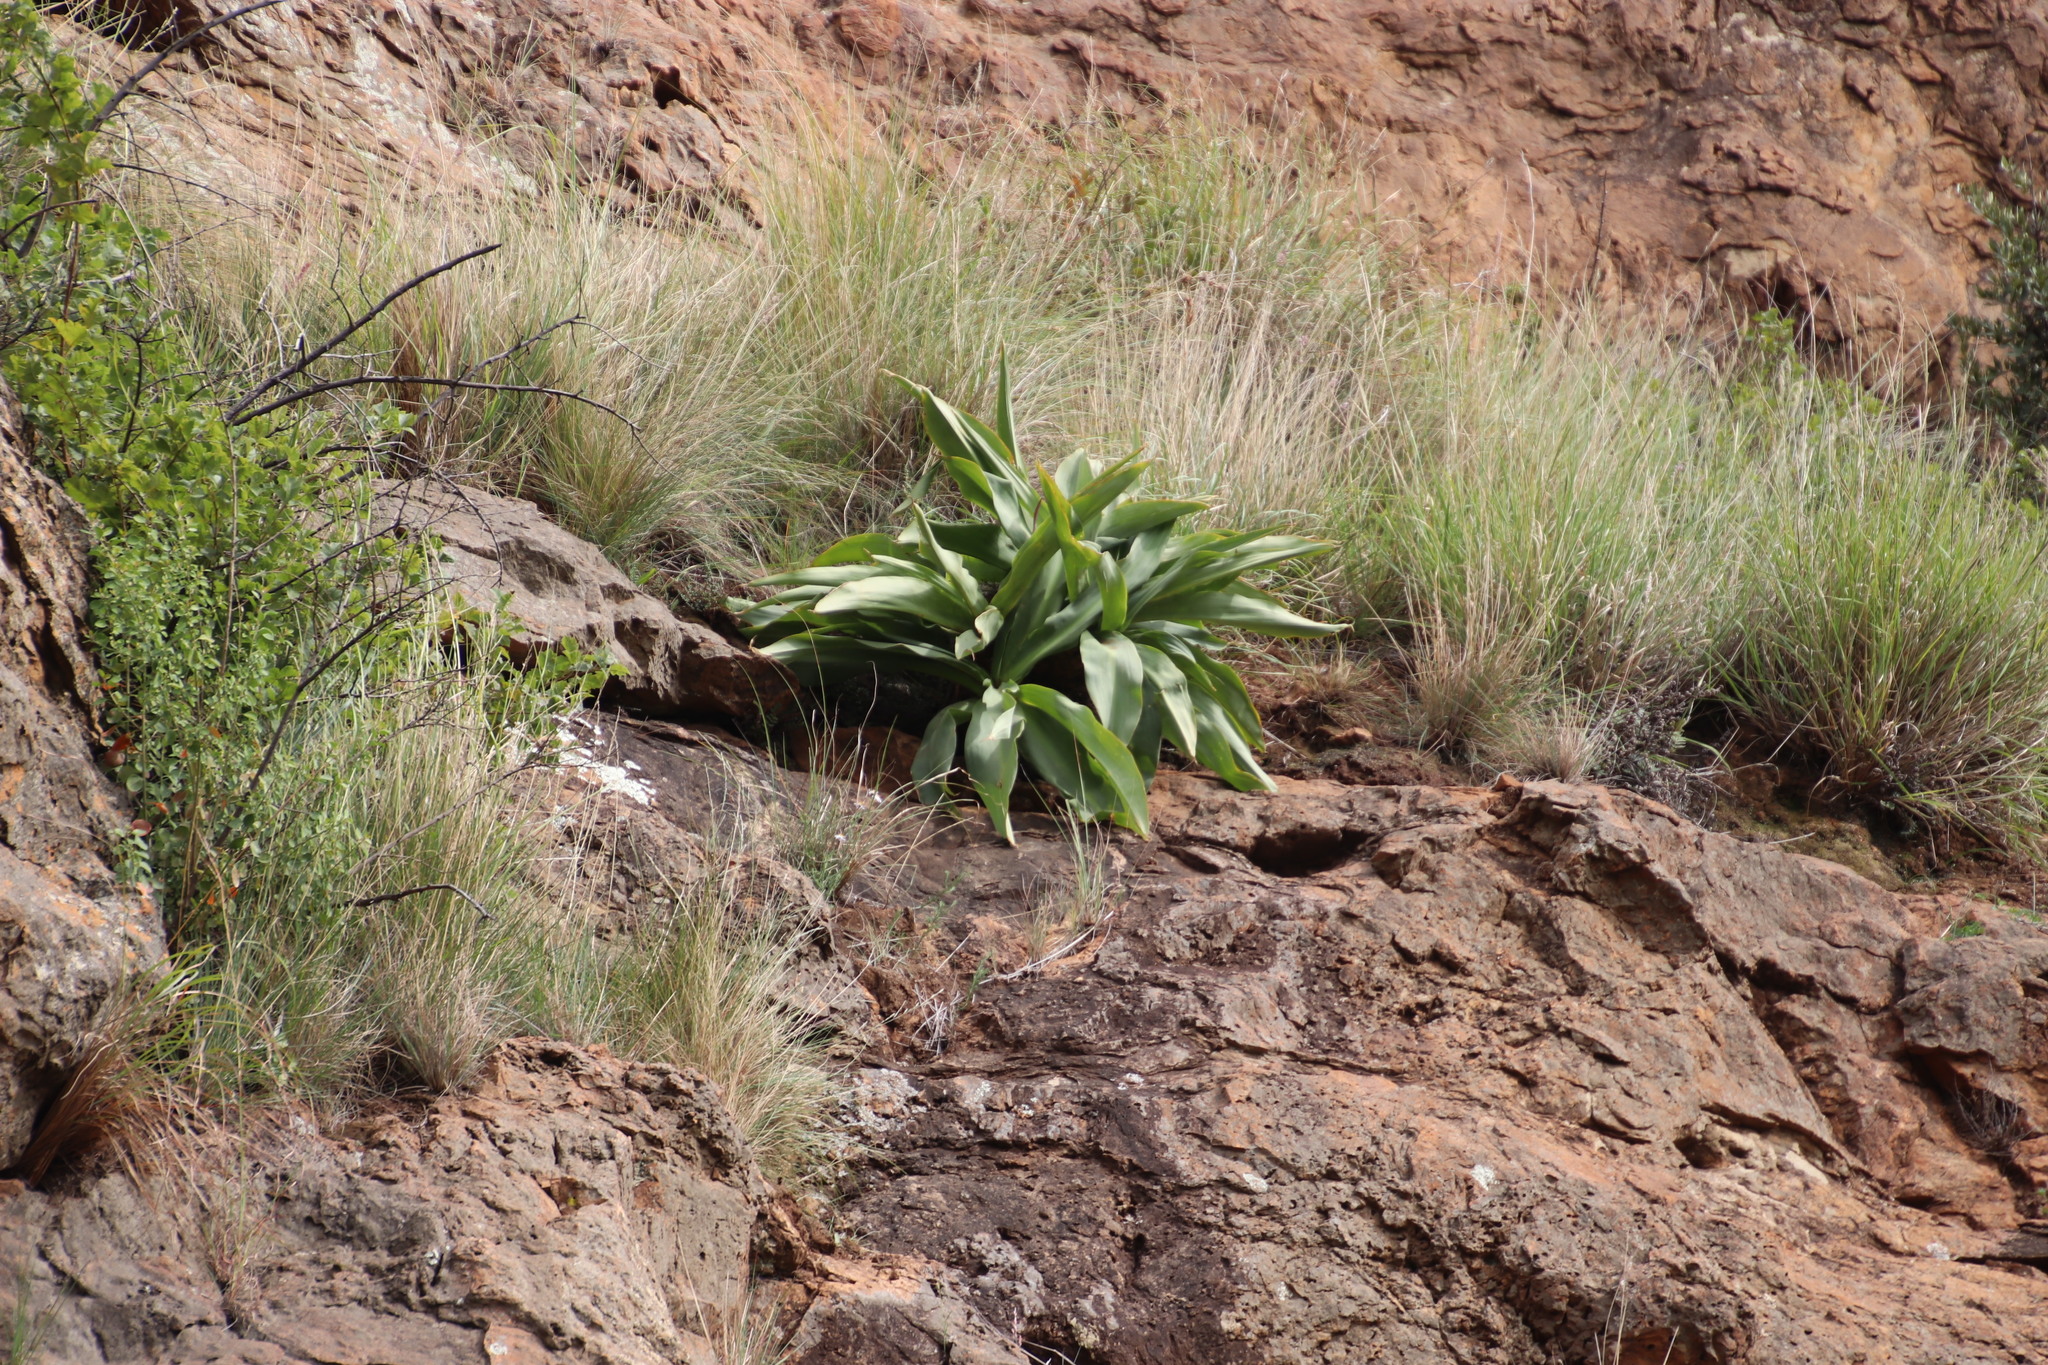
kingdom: Plantae
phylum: Tracheophyta
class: Liliopsida
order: Asparagales
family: Asparagaceae
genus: Merwilla
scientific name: Merwilla plumbea
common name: Blue-squill
